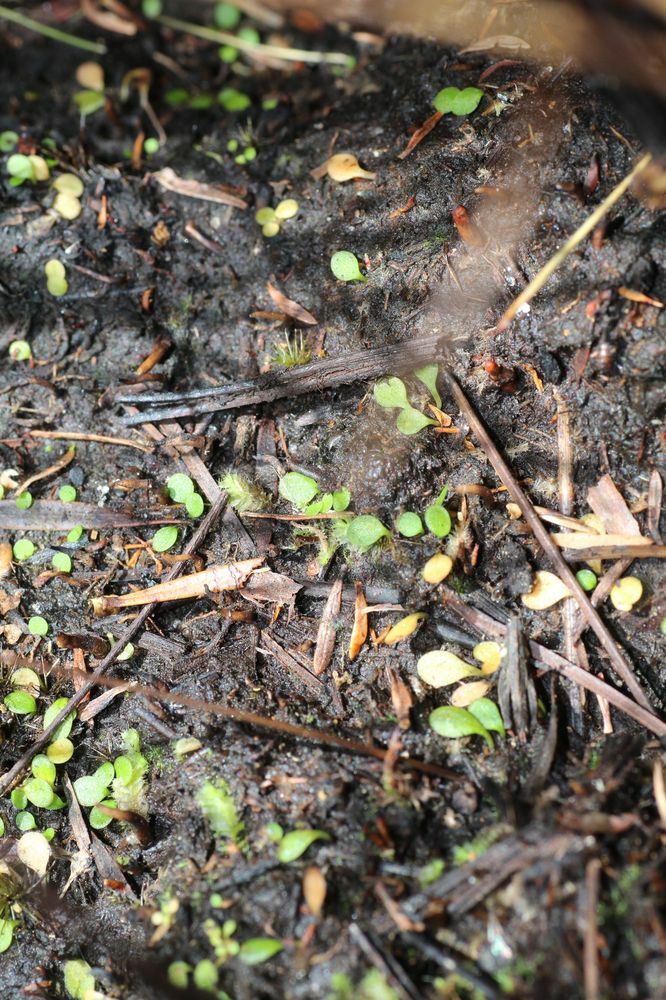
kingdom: Plantae
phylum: Tracheophyta
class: Magnoliopsida
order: Lamiales
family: Lentibulariaceae
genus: Utricularia
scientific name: Utricularia paulineae
